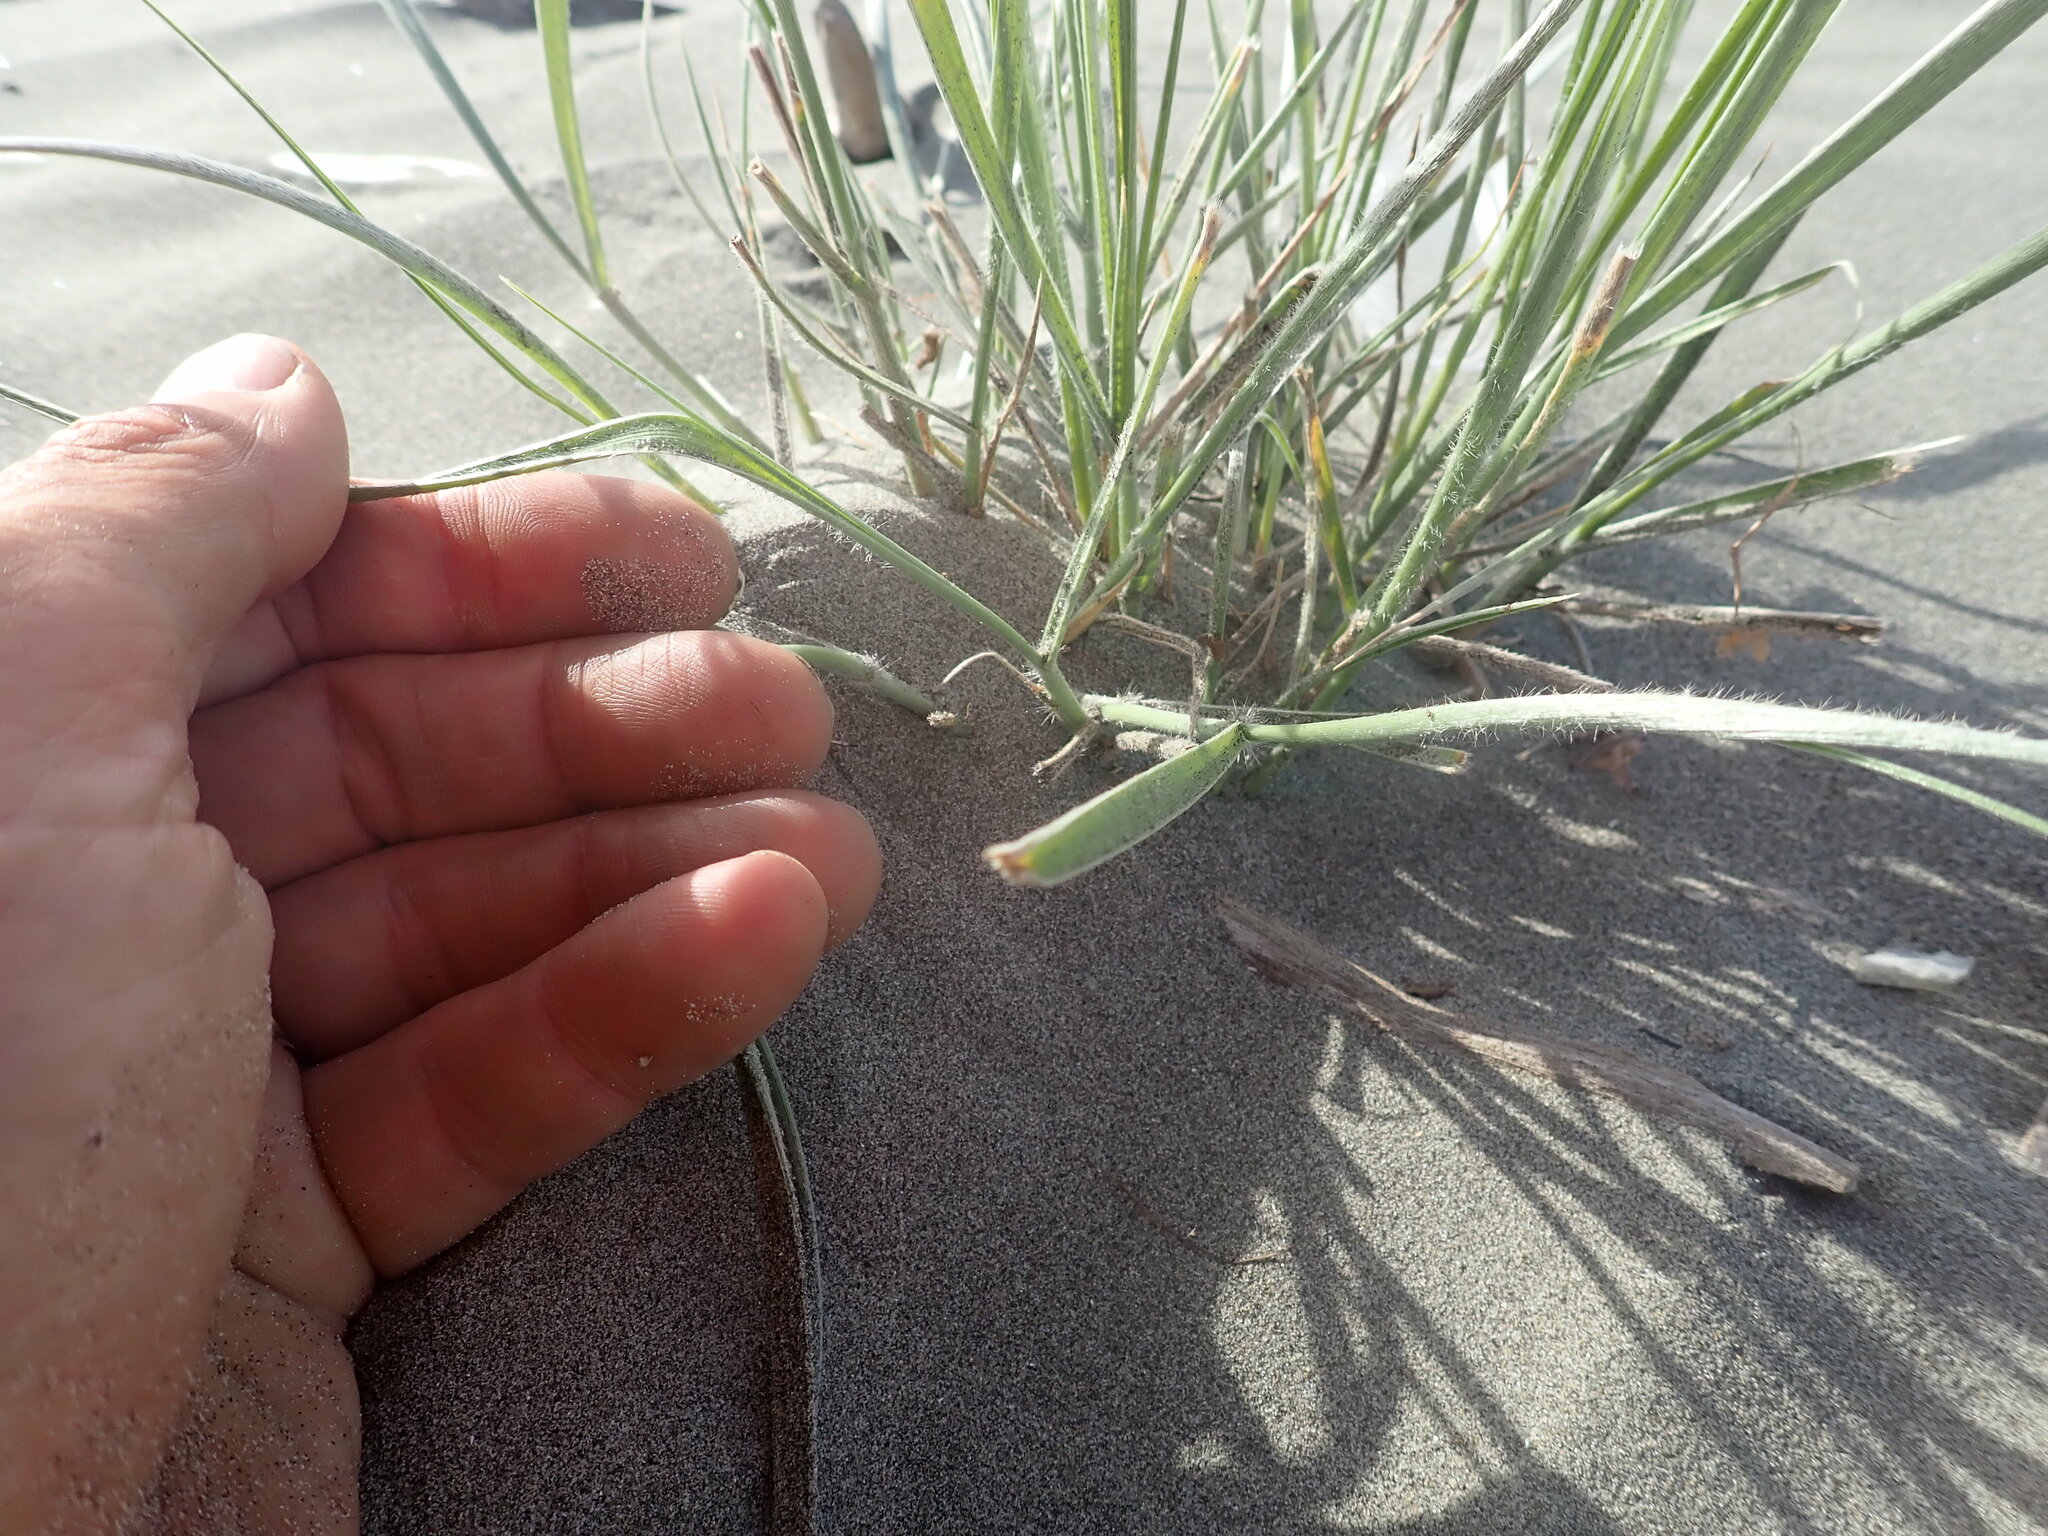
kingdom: Plantae
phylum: Tracheophyta
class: Liliopsida
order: Poales
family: Poaceae
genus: Spinifex
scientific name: Spinifex sericeus
